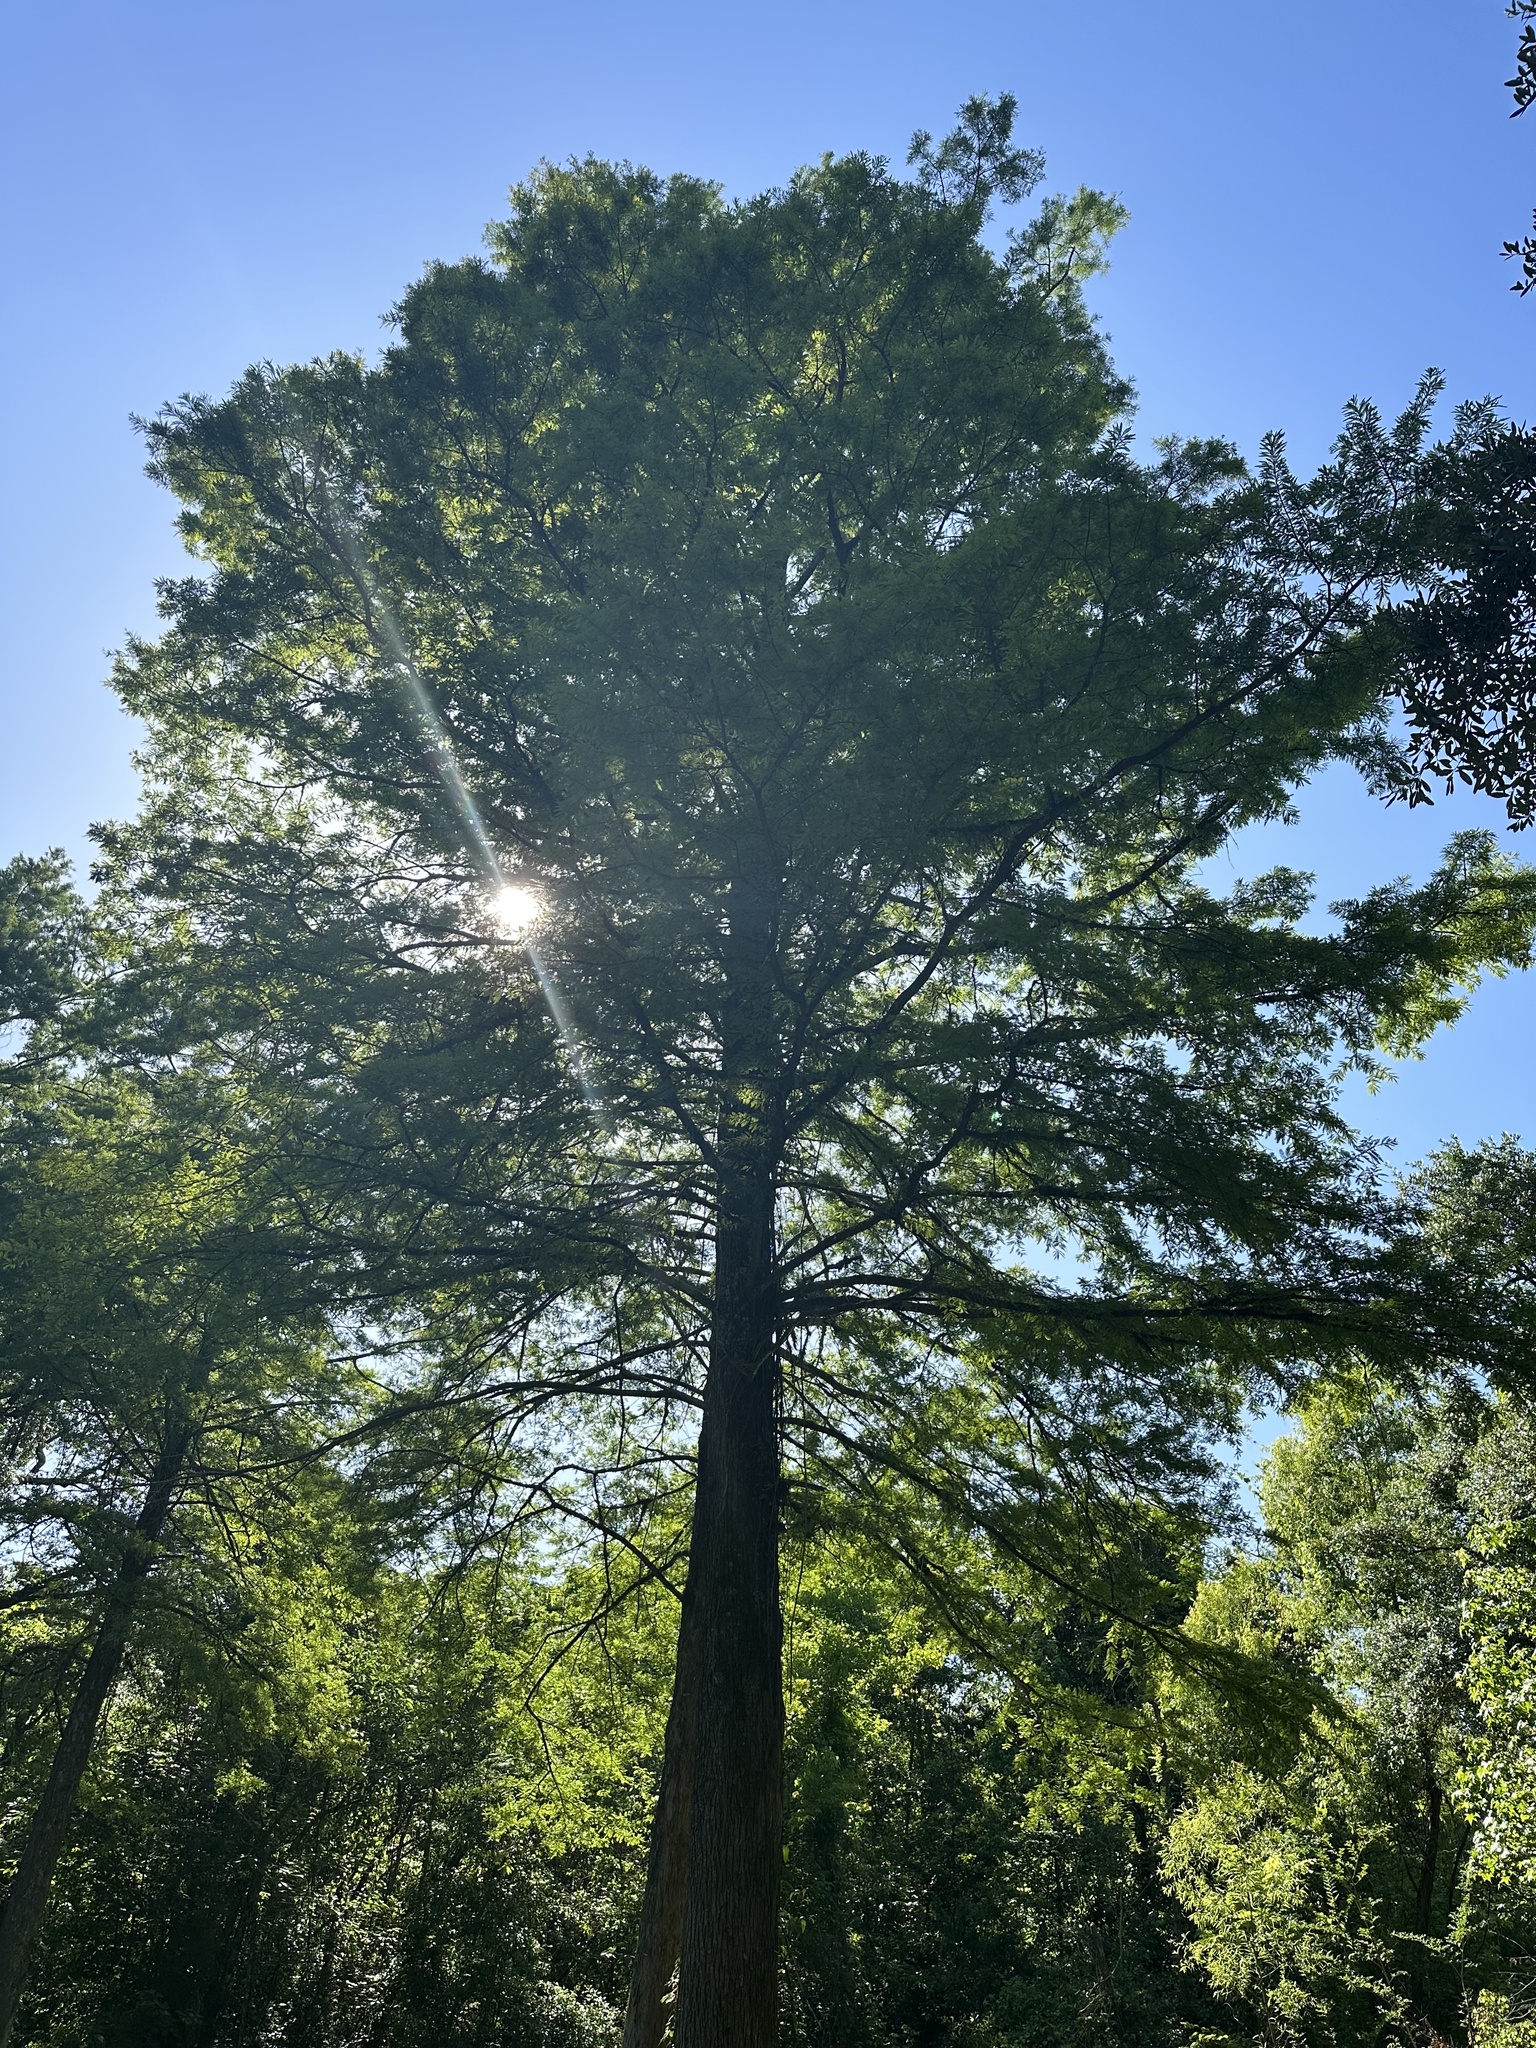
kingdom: Plantae
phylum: Tracheophyta
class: Pinopsida
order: Pinales
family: Cupressaceae
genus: Taxodium
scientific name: Taxodium distichum
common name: Bald cypress
